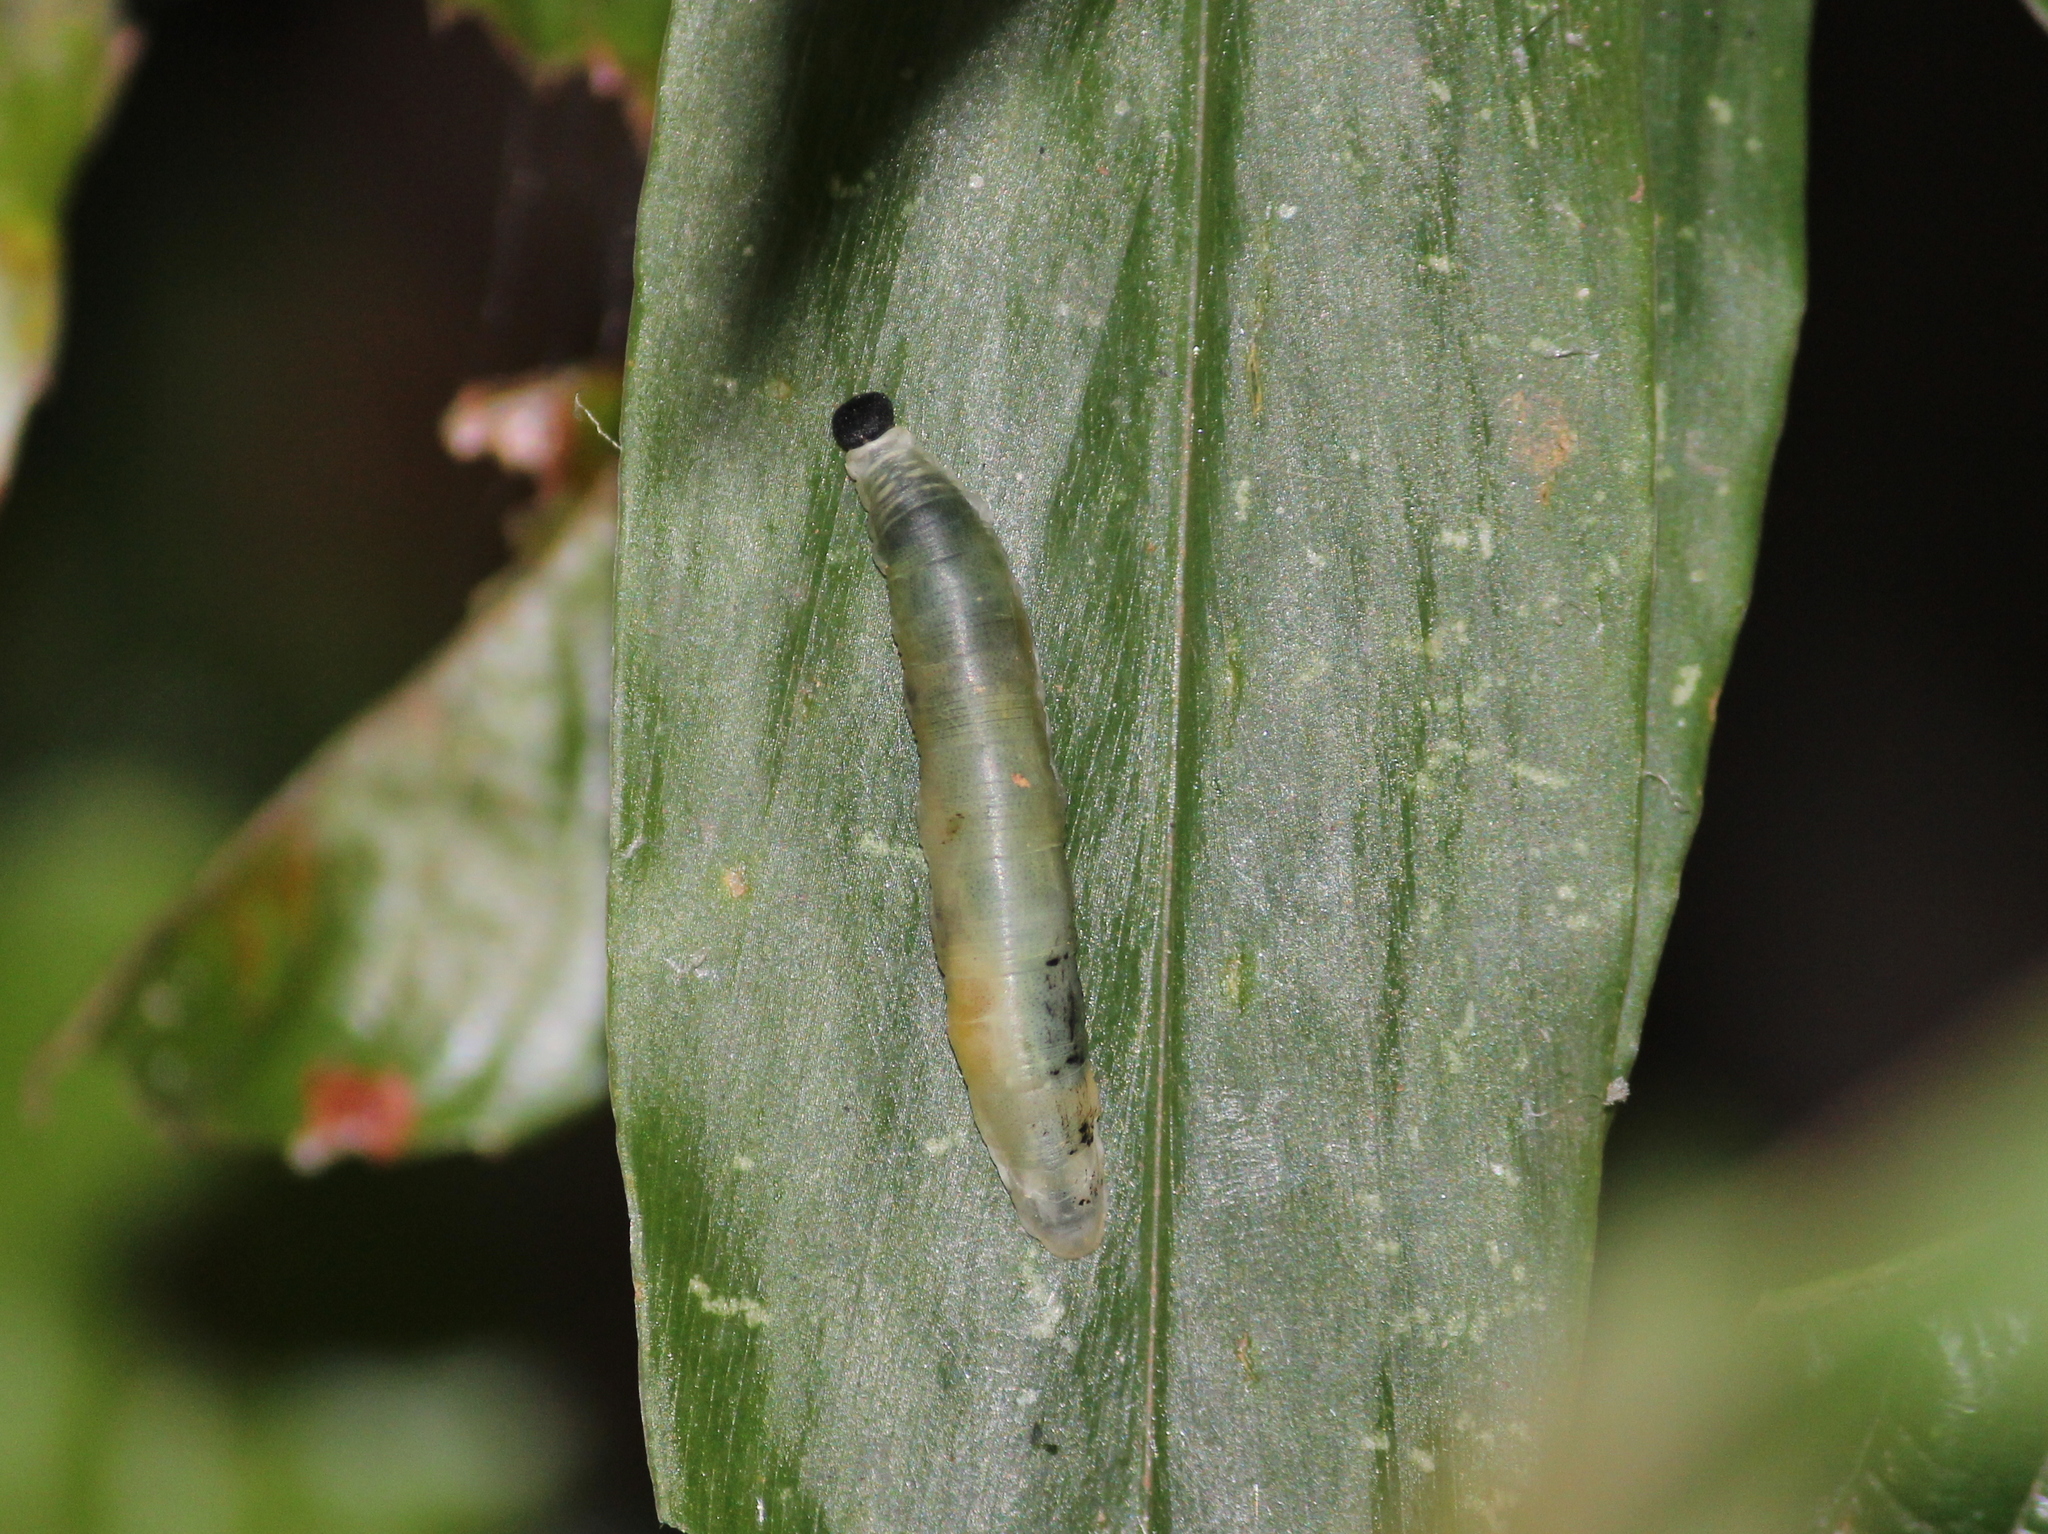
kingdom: Animalia
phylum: Arthropoda
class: Insecta
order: Lepidoptera
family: Hesperiidae
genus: Udaspes
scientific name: Udaspes folus
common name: Grass demon
